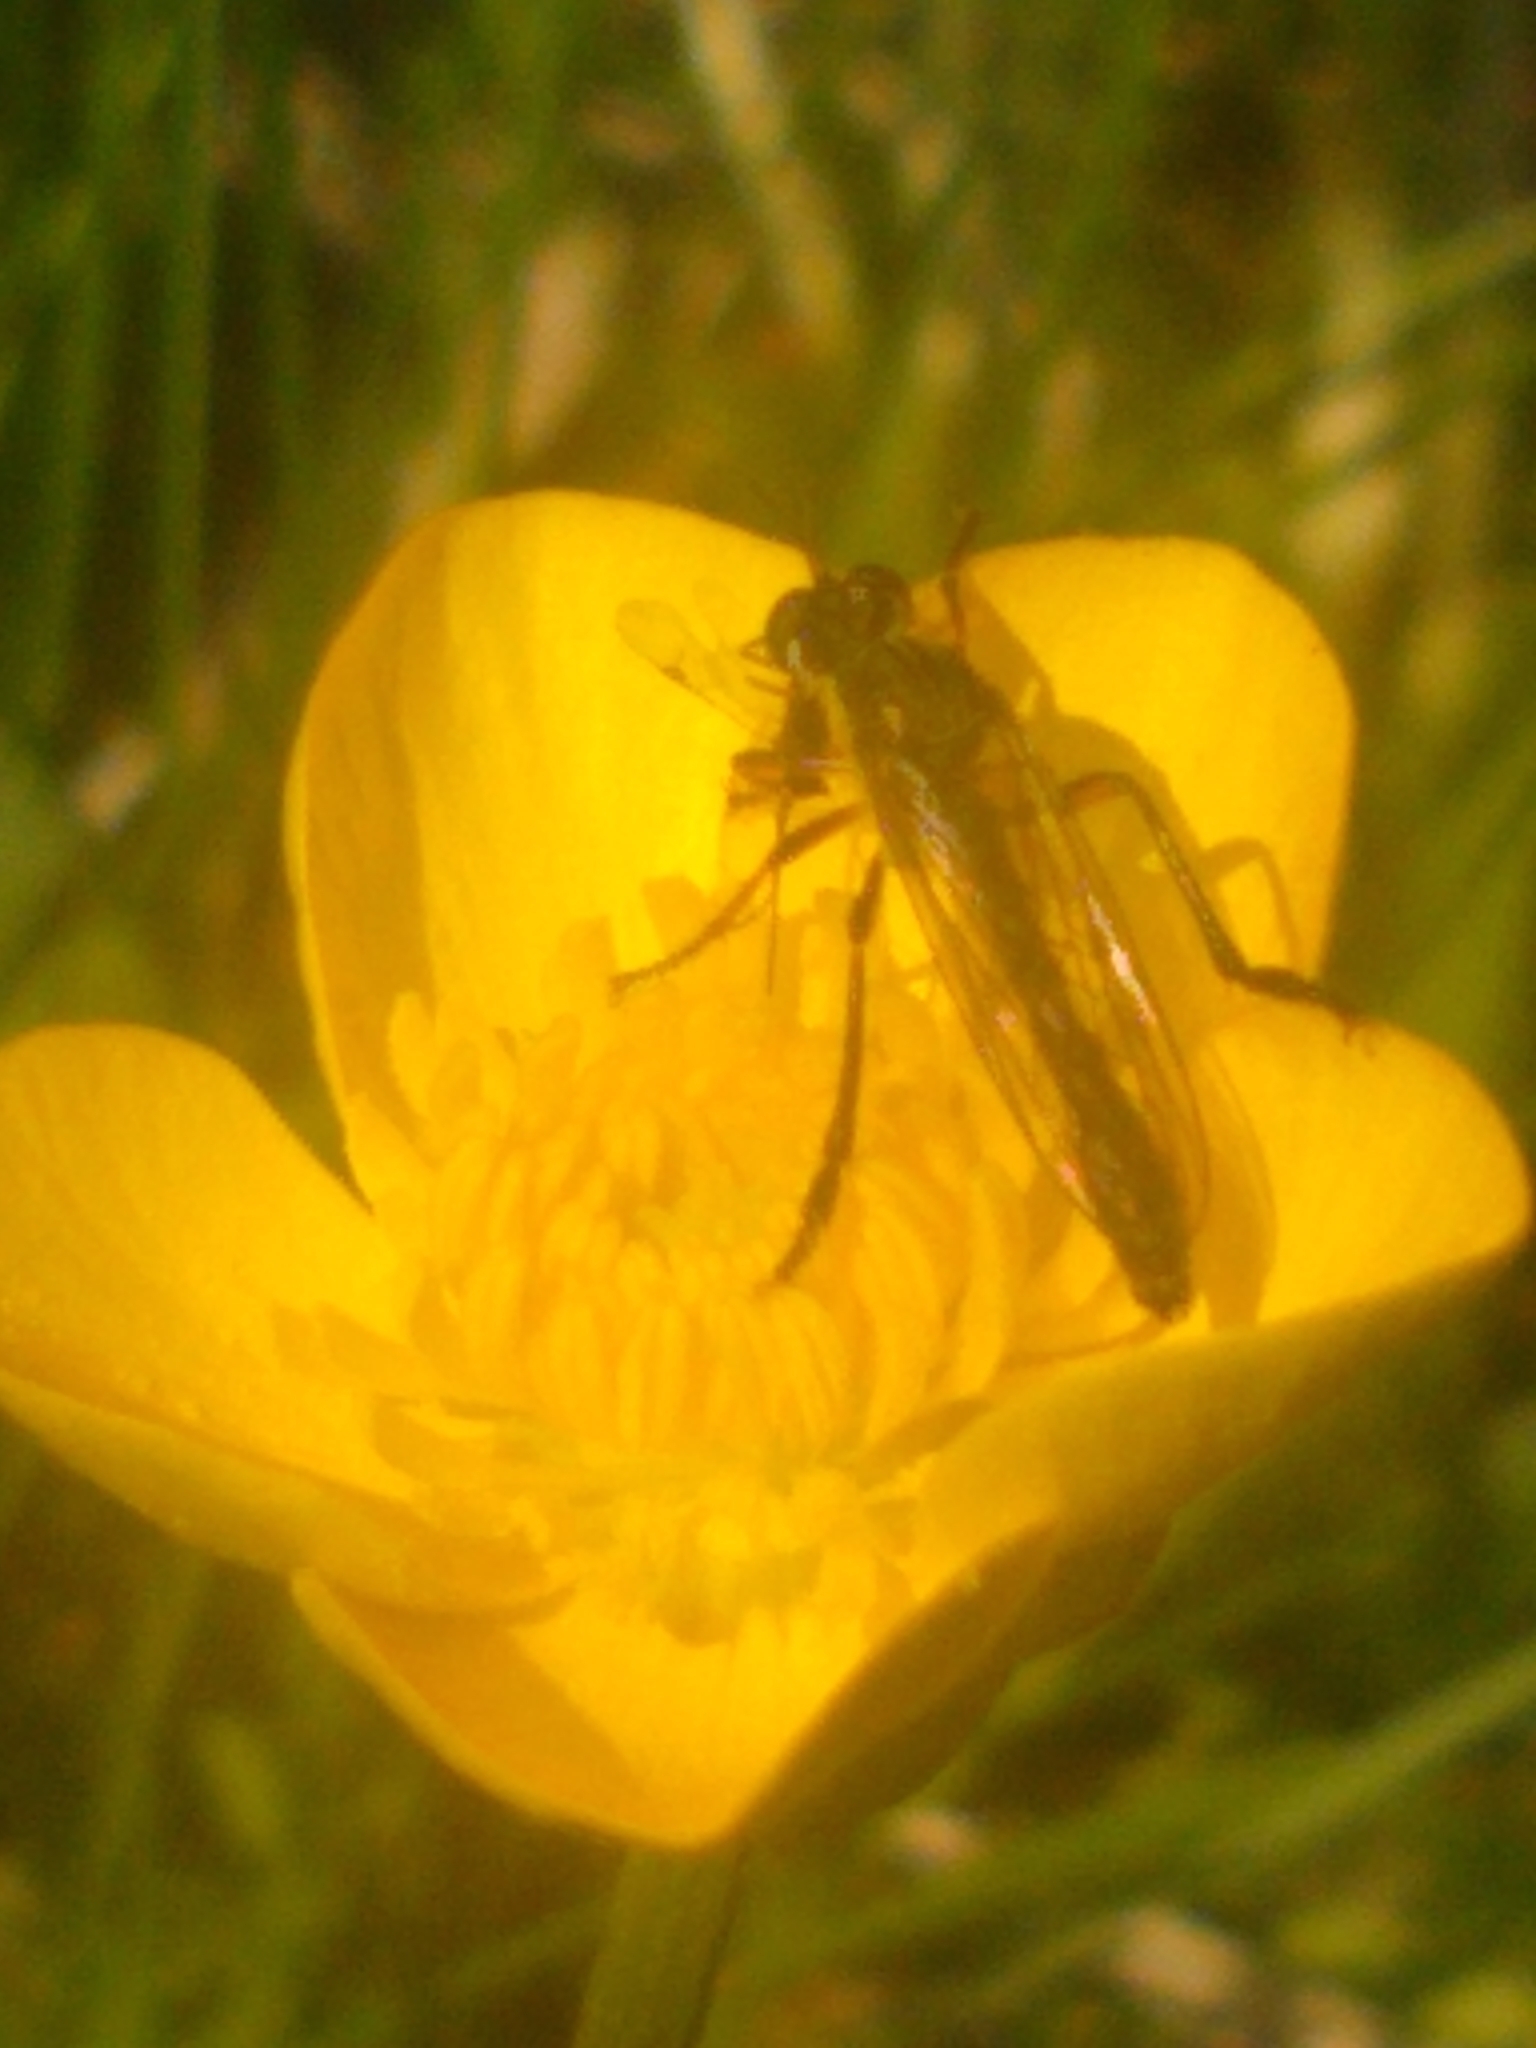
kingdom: Animalia
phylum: Arthropoda
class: Insecta
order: Diptera
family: Asilidae
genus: Dioctria
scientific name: Dioctria hyalipennis
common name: Stripe-legged robberfly
